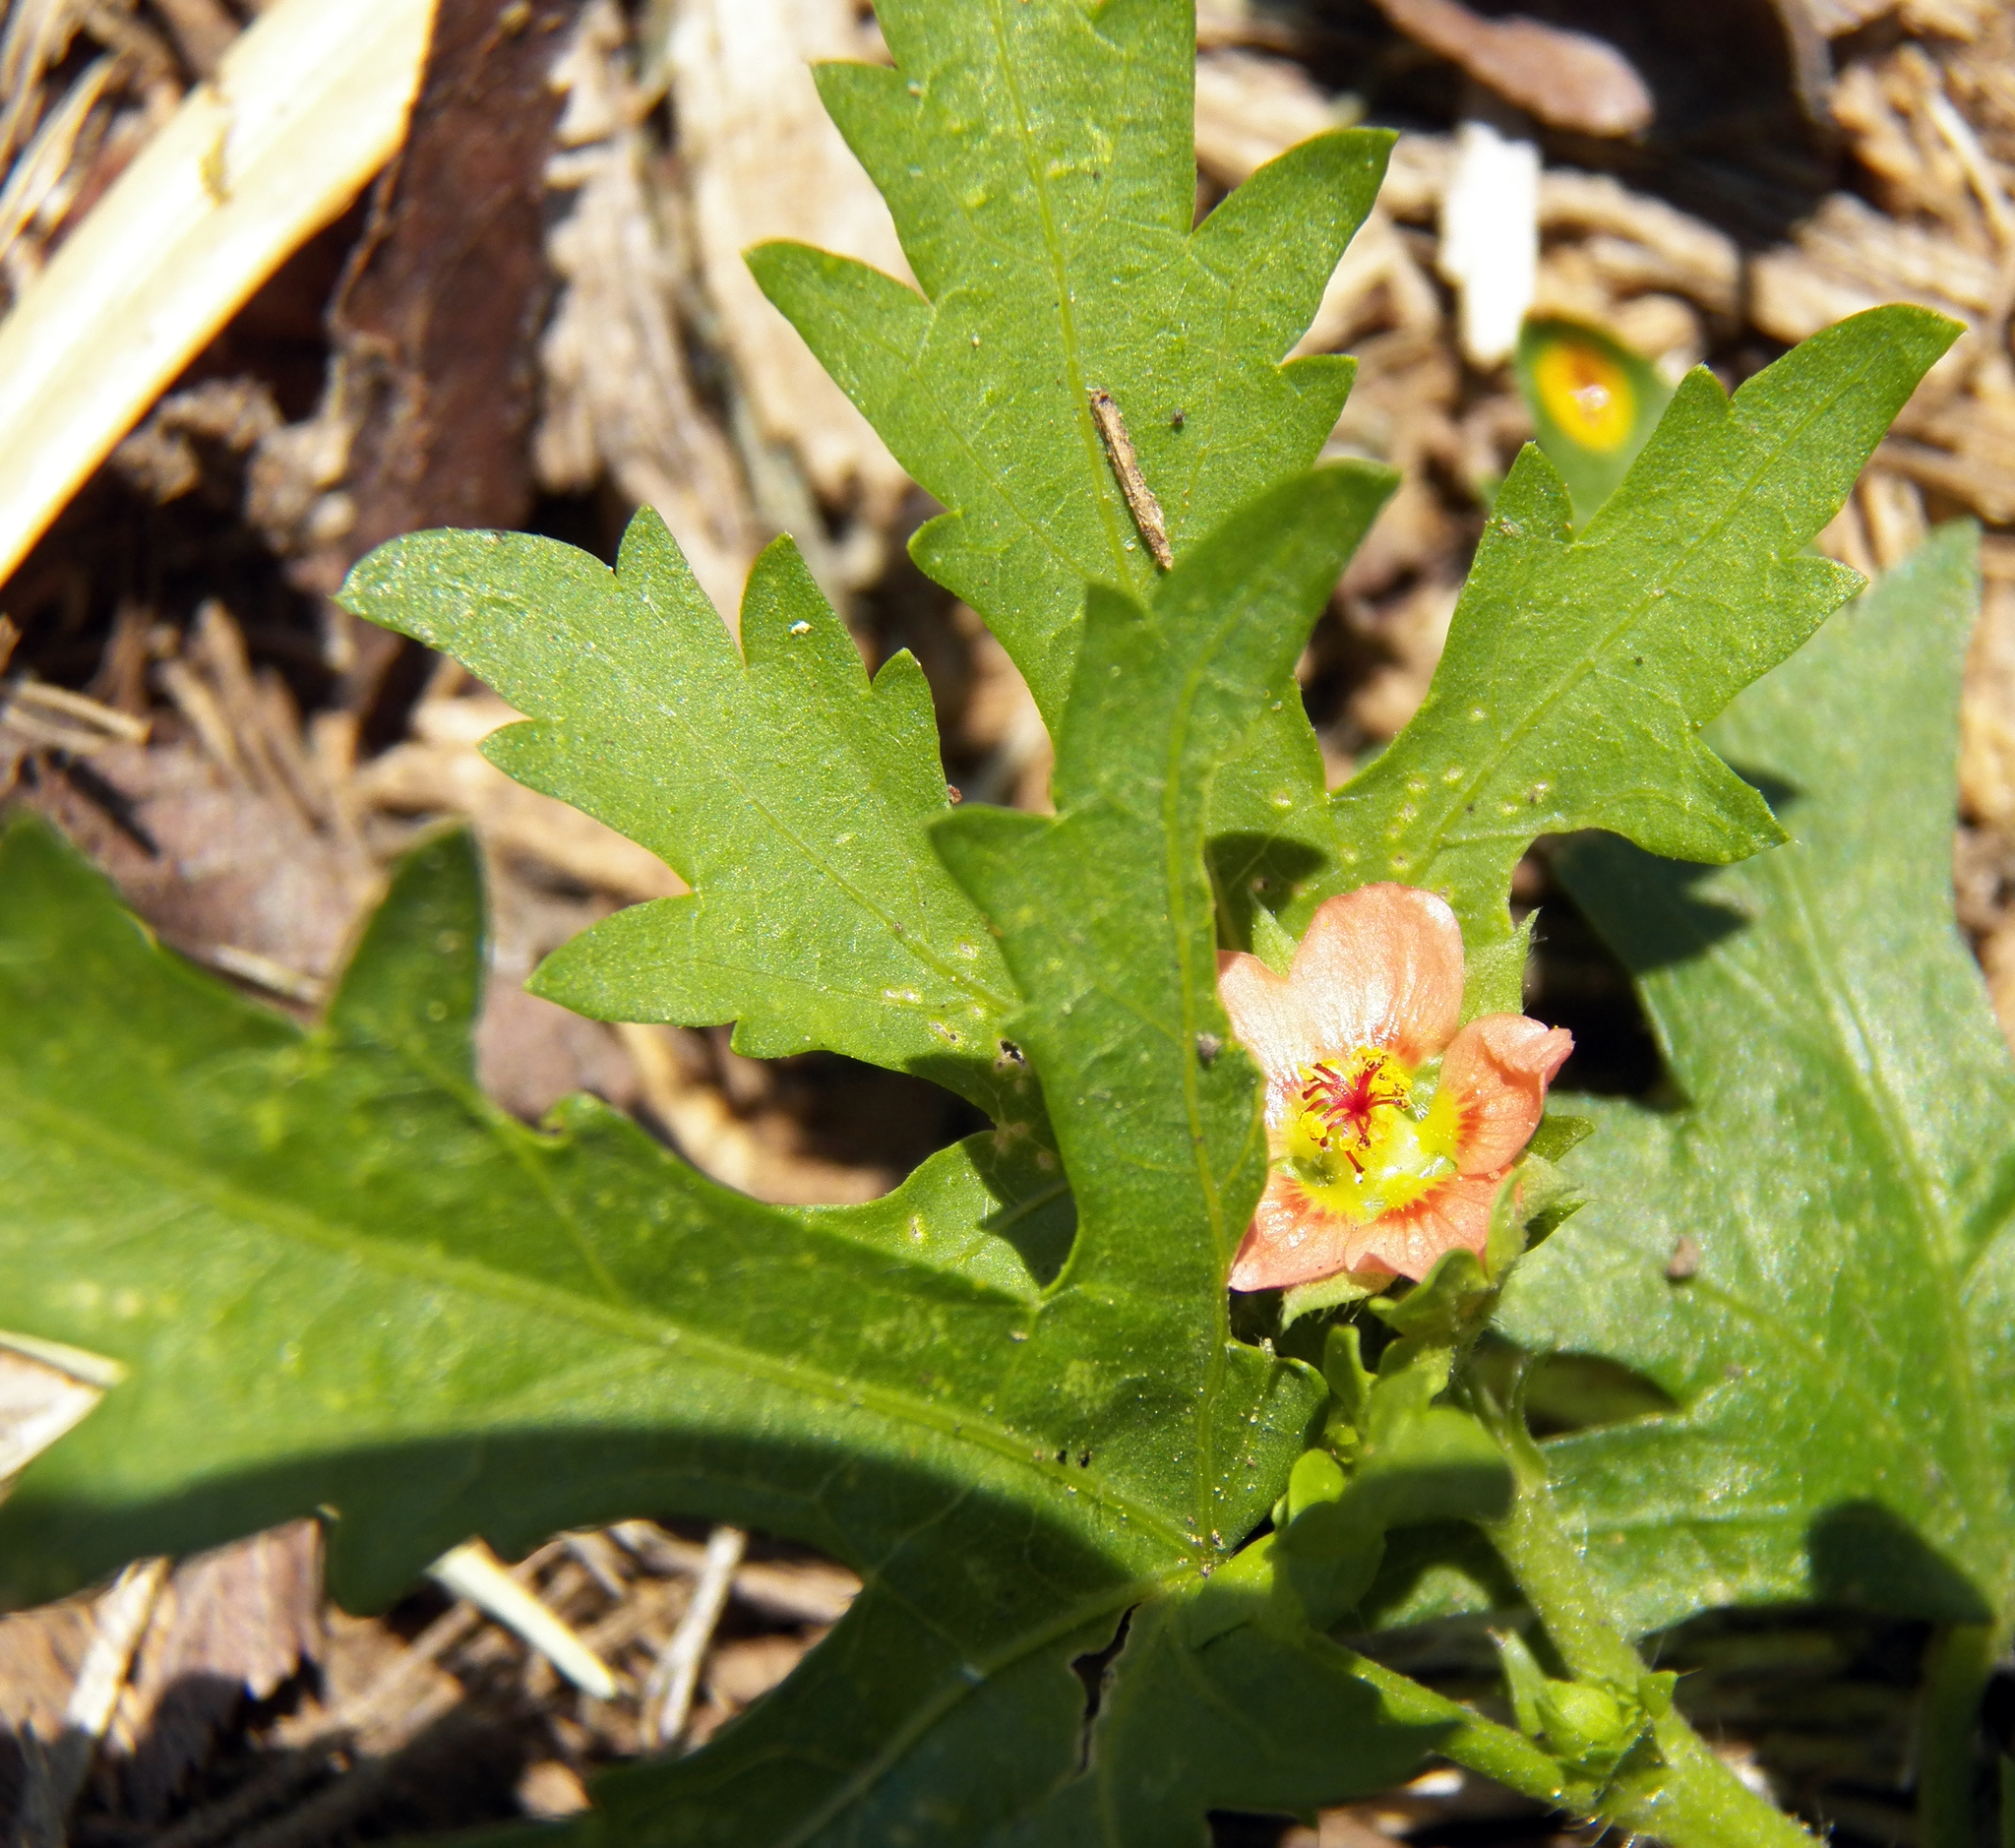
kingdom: Plantae
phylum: Tracheophyta
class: Magnoliopsida
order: Malvales
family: Malvaceae
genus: Modiola
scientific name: Modiola caroliniana
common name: Carolina bristlemallow
